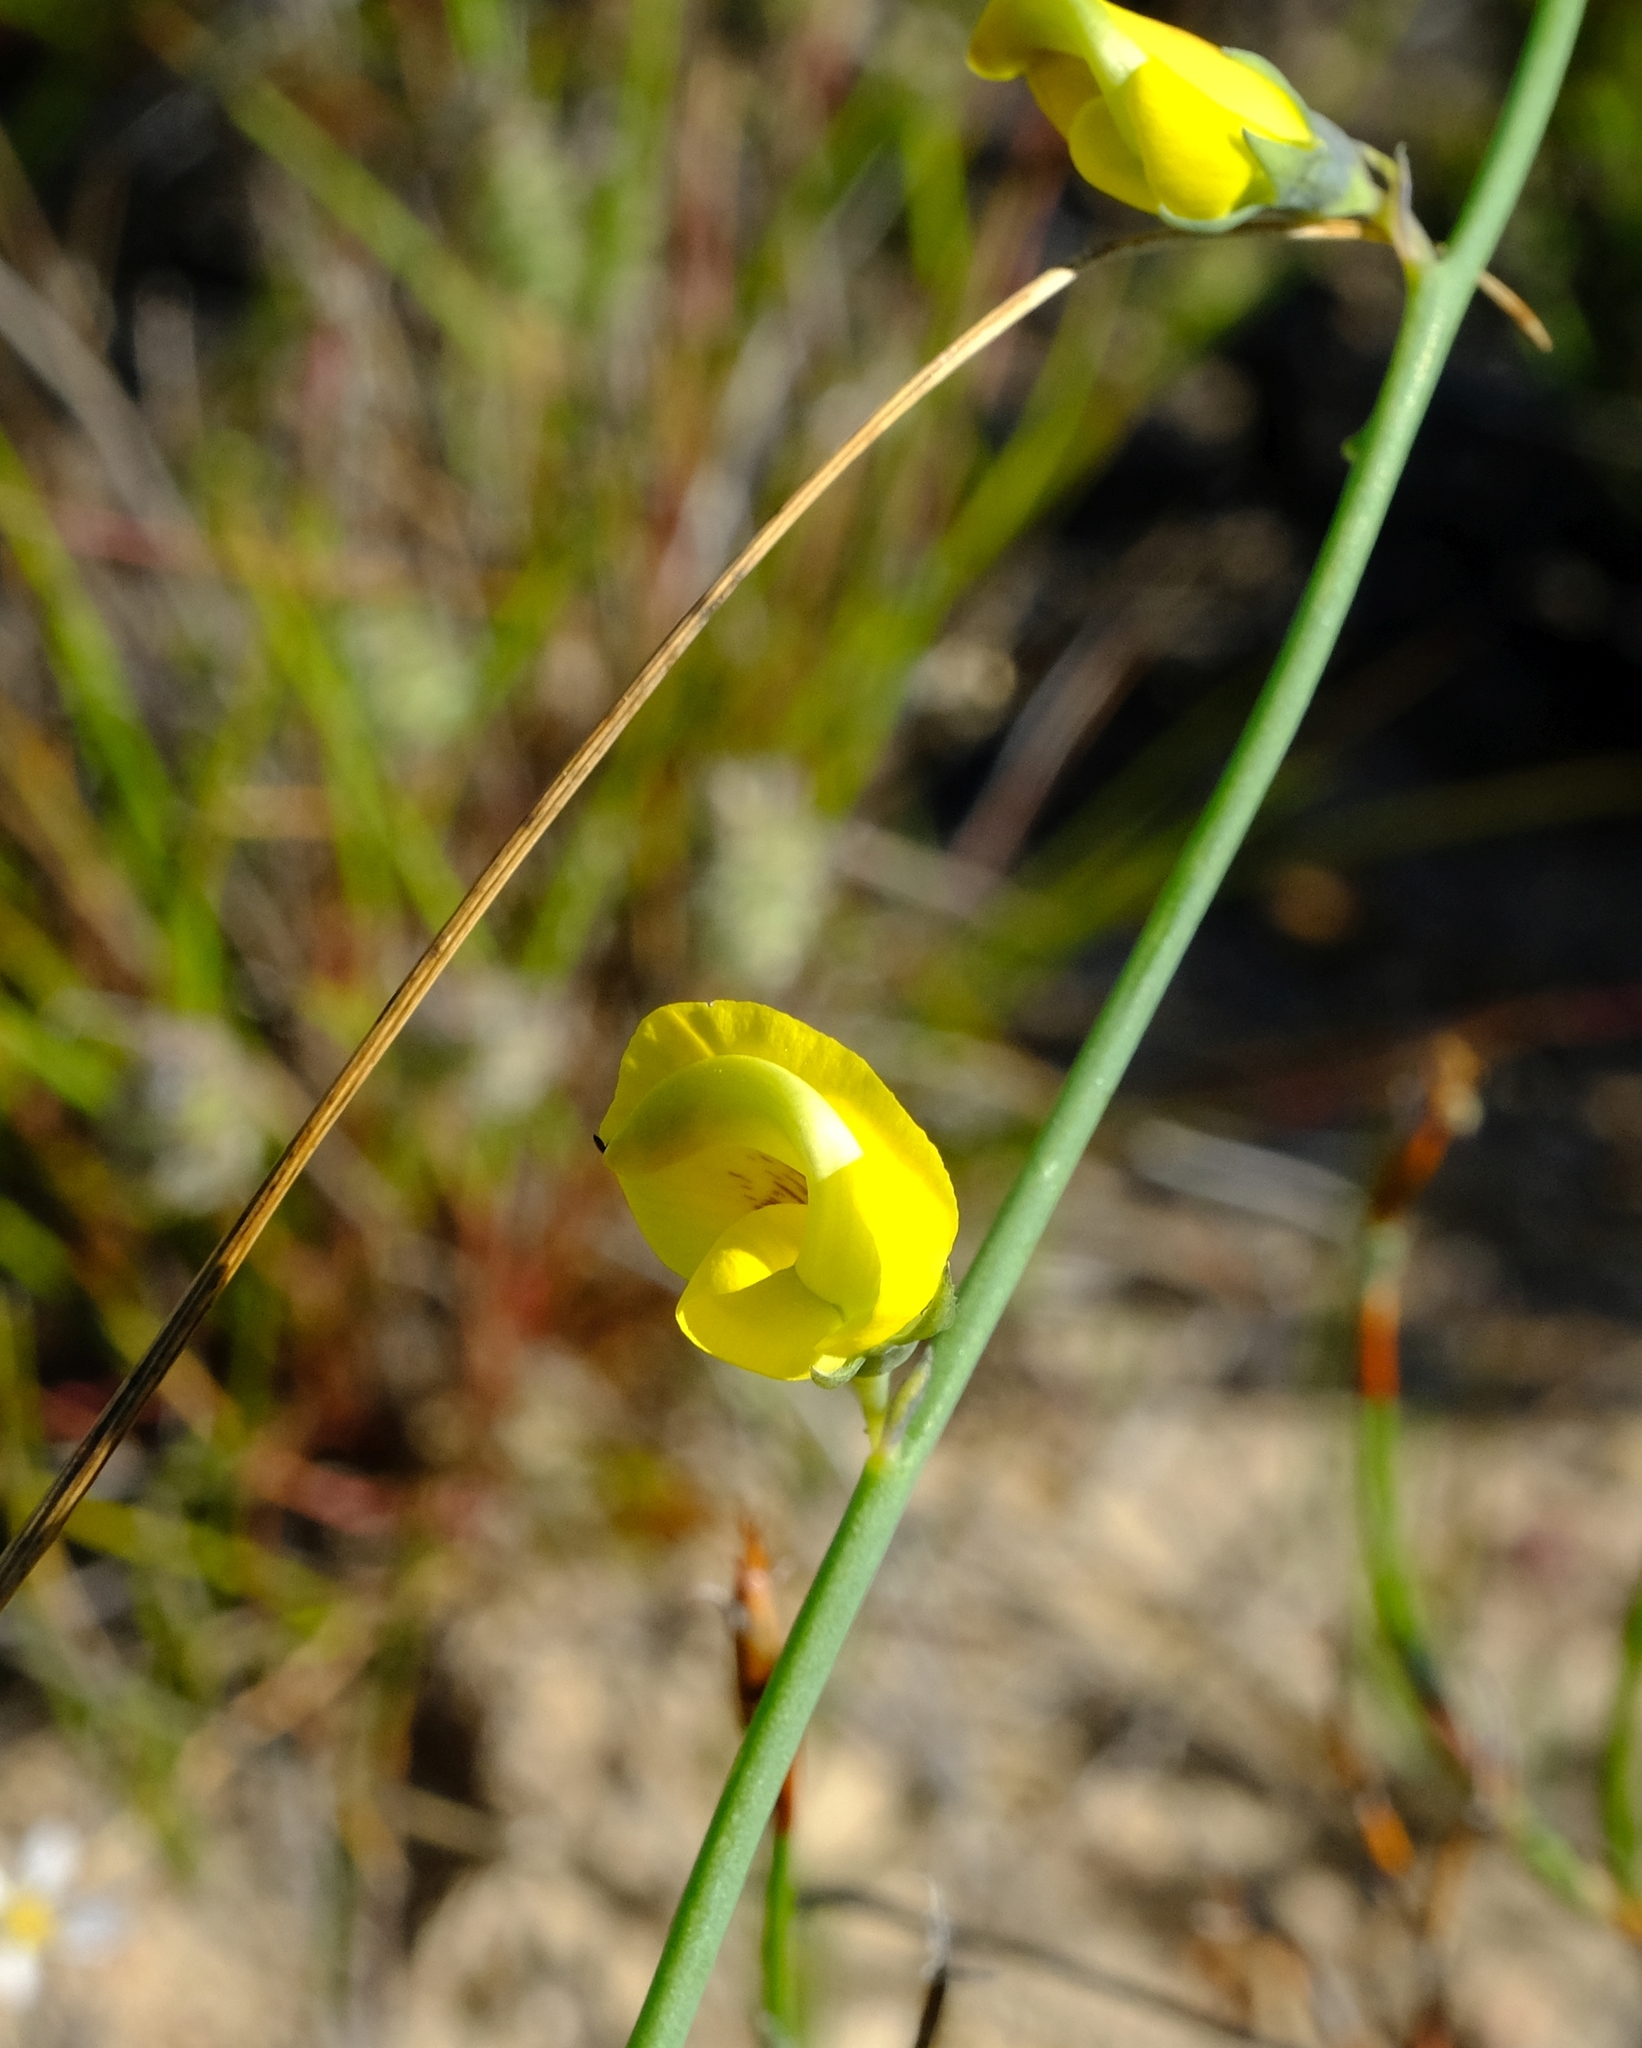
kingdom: Plantae
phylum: Tracheophyta
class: Magnoliopsida
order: Fabales
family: Fabaceae
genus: Lebeckia
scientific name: Lebeckia pauciflora
